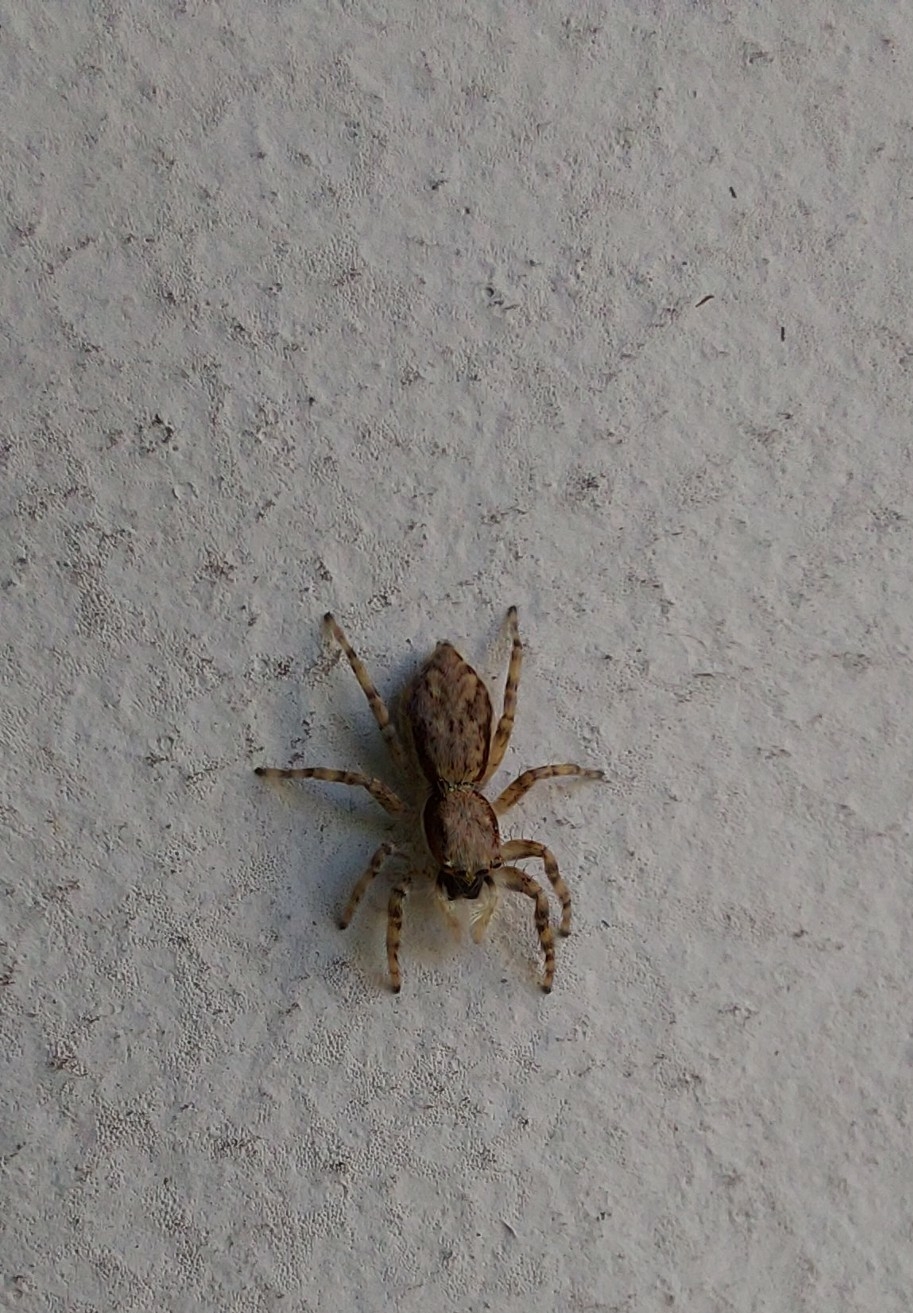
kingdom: Animalia
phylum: Arthropoda
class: Arachnida
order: Araneae
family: Salticidae
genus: Menemerus
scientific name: Menemerus bivittatus
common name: Gray wall jumper
